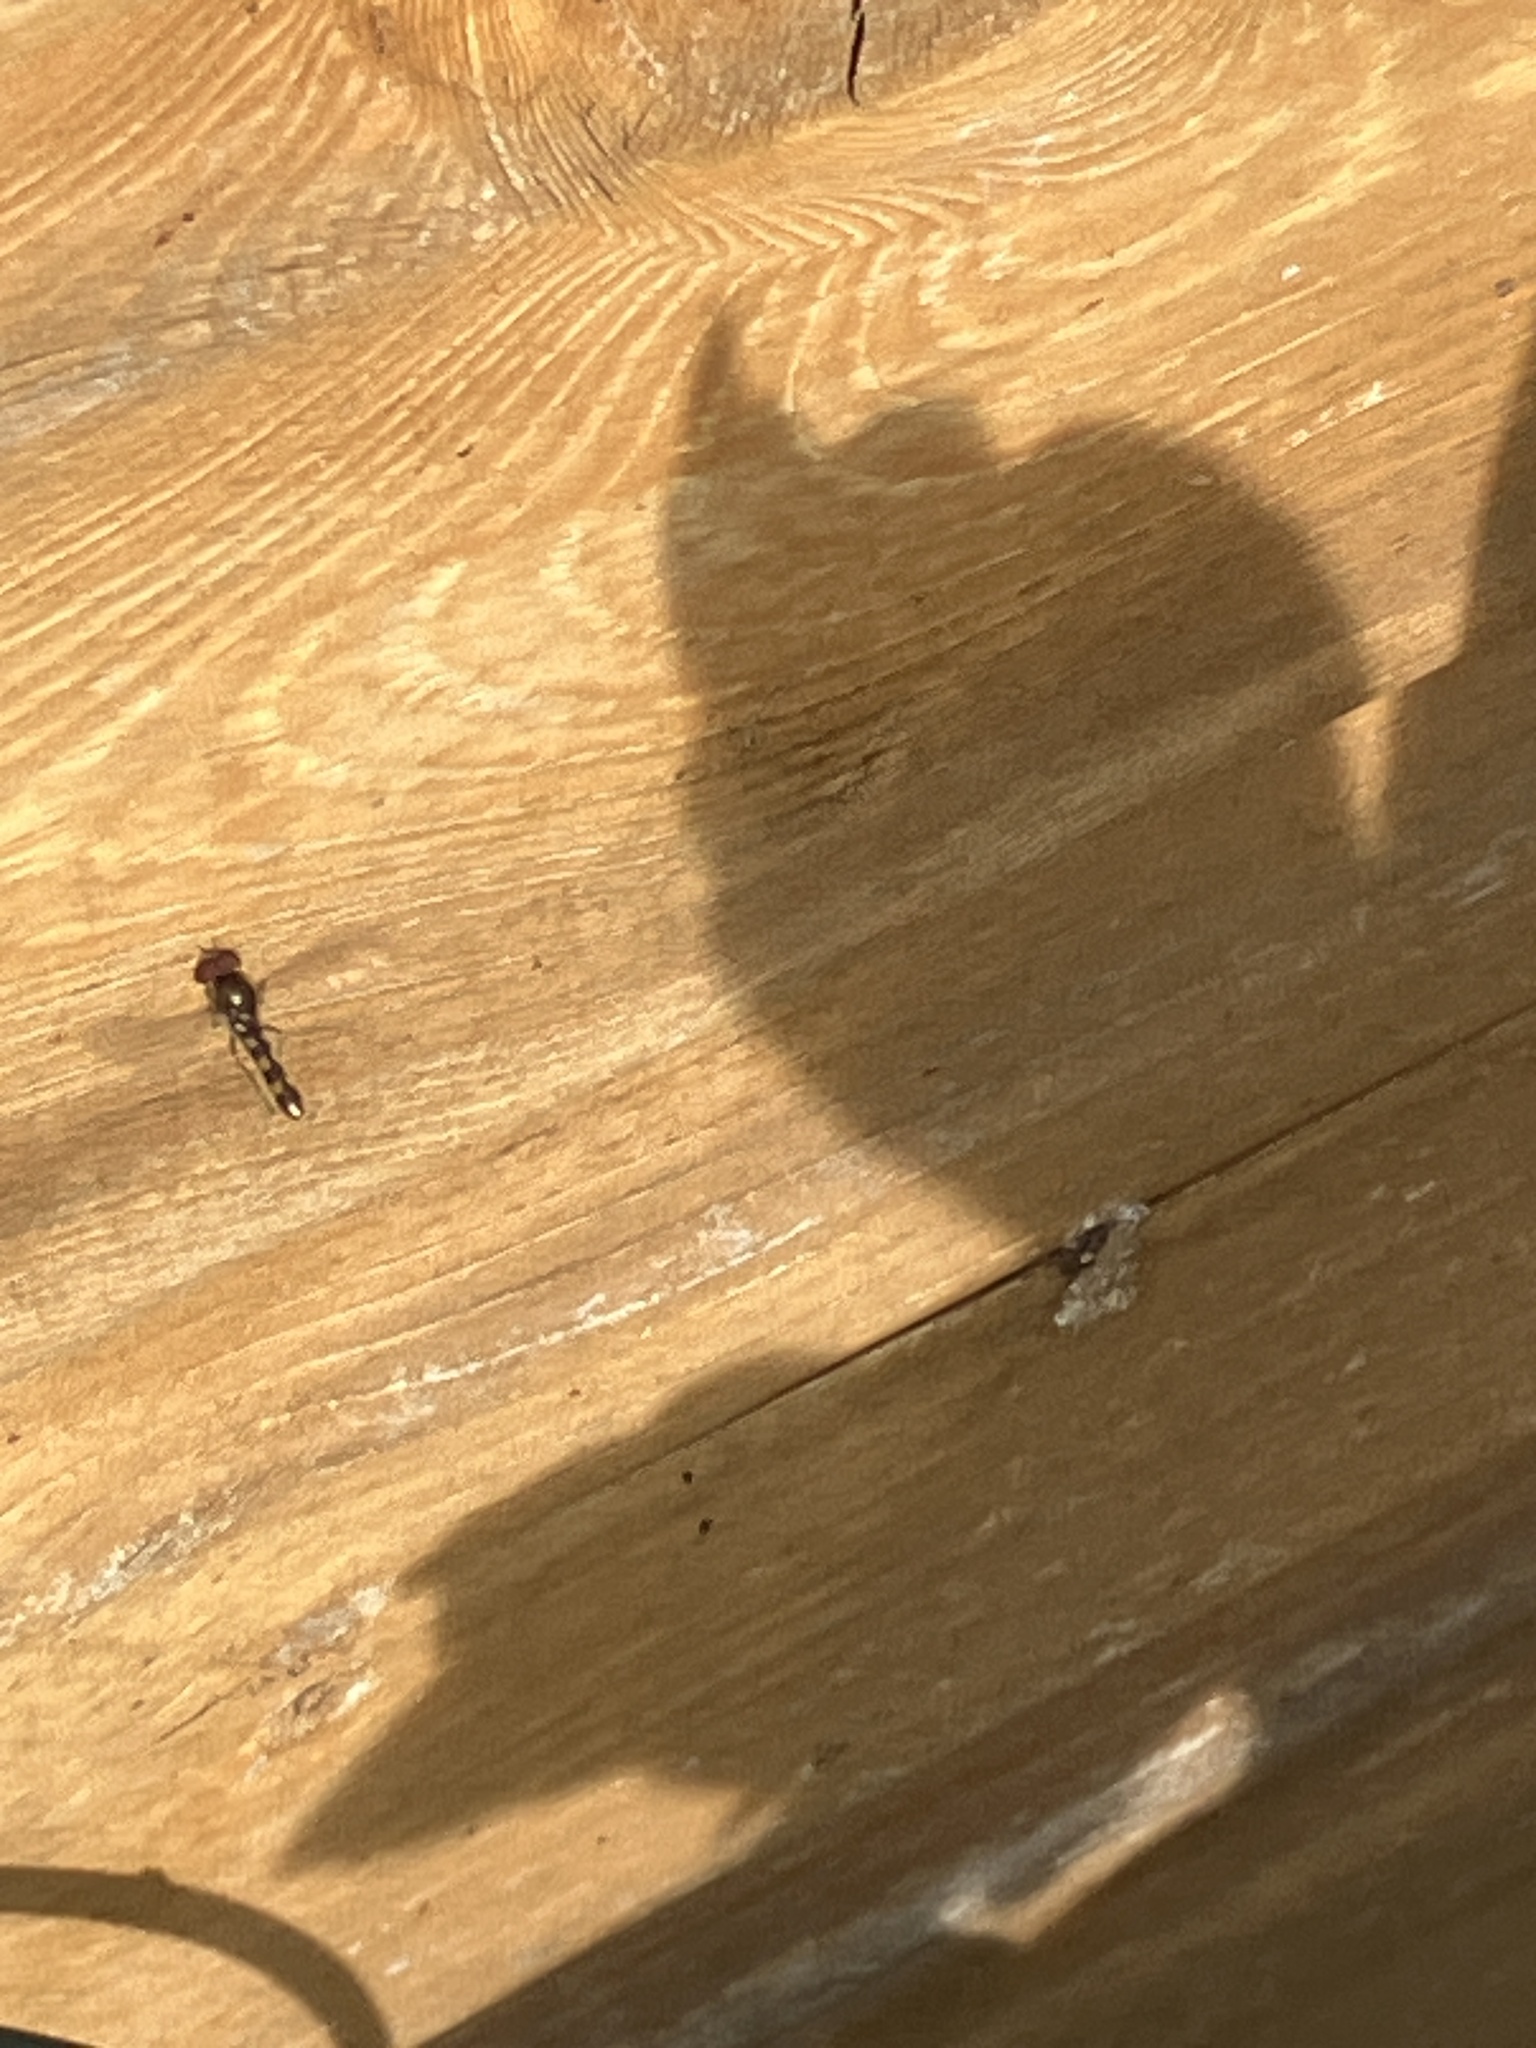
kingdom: Animalia
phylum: Arthropoda
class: Insecta
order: Diptera
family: Syrphidae
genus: Platycheirus
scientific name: Platycheirus scutatus
